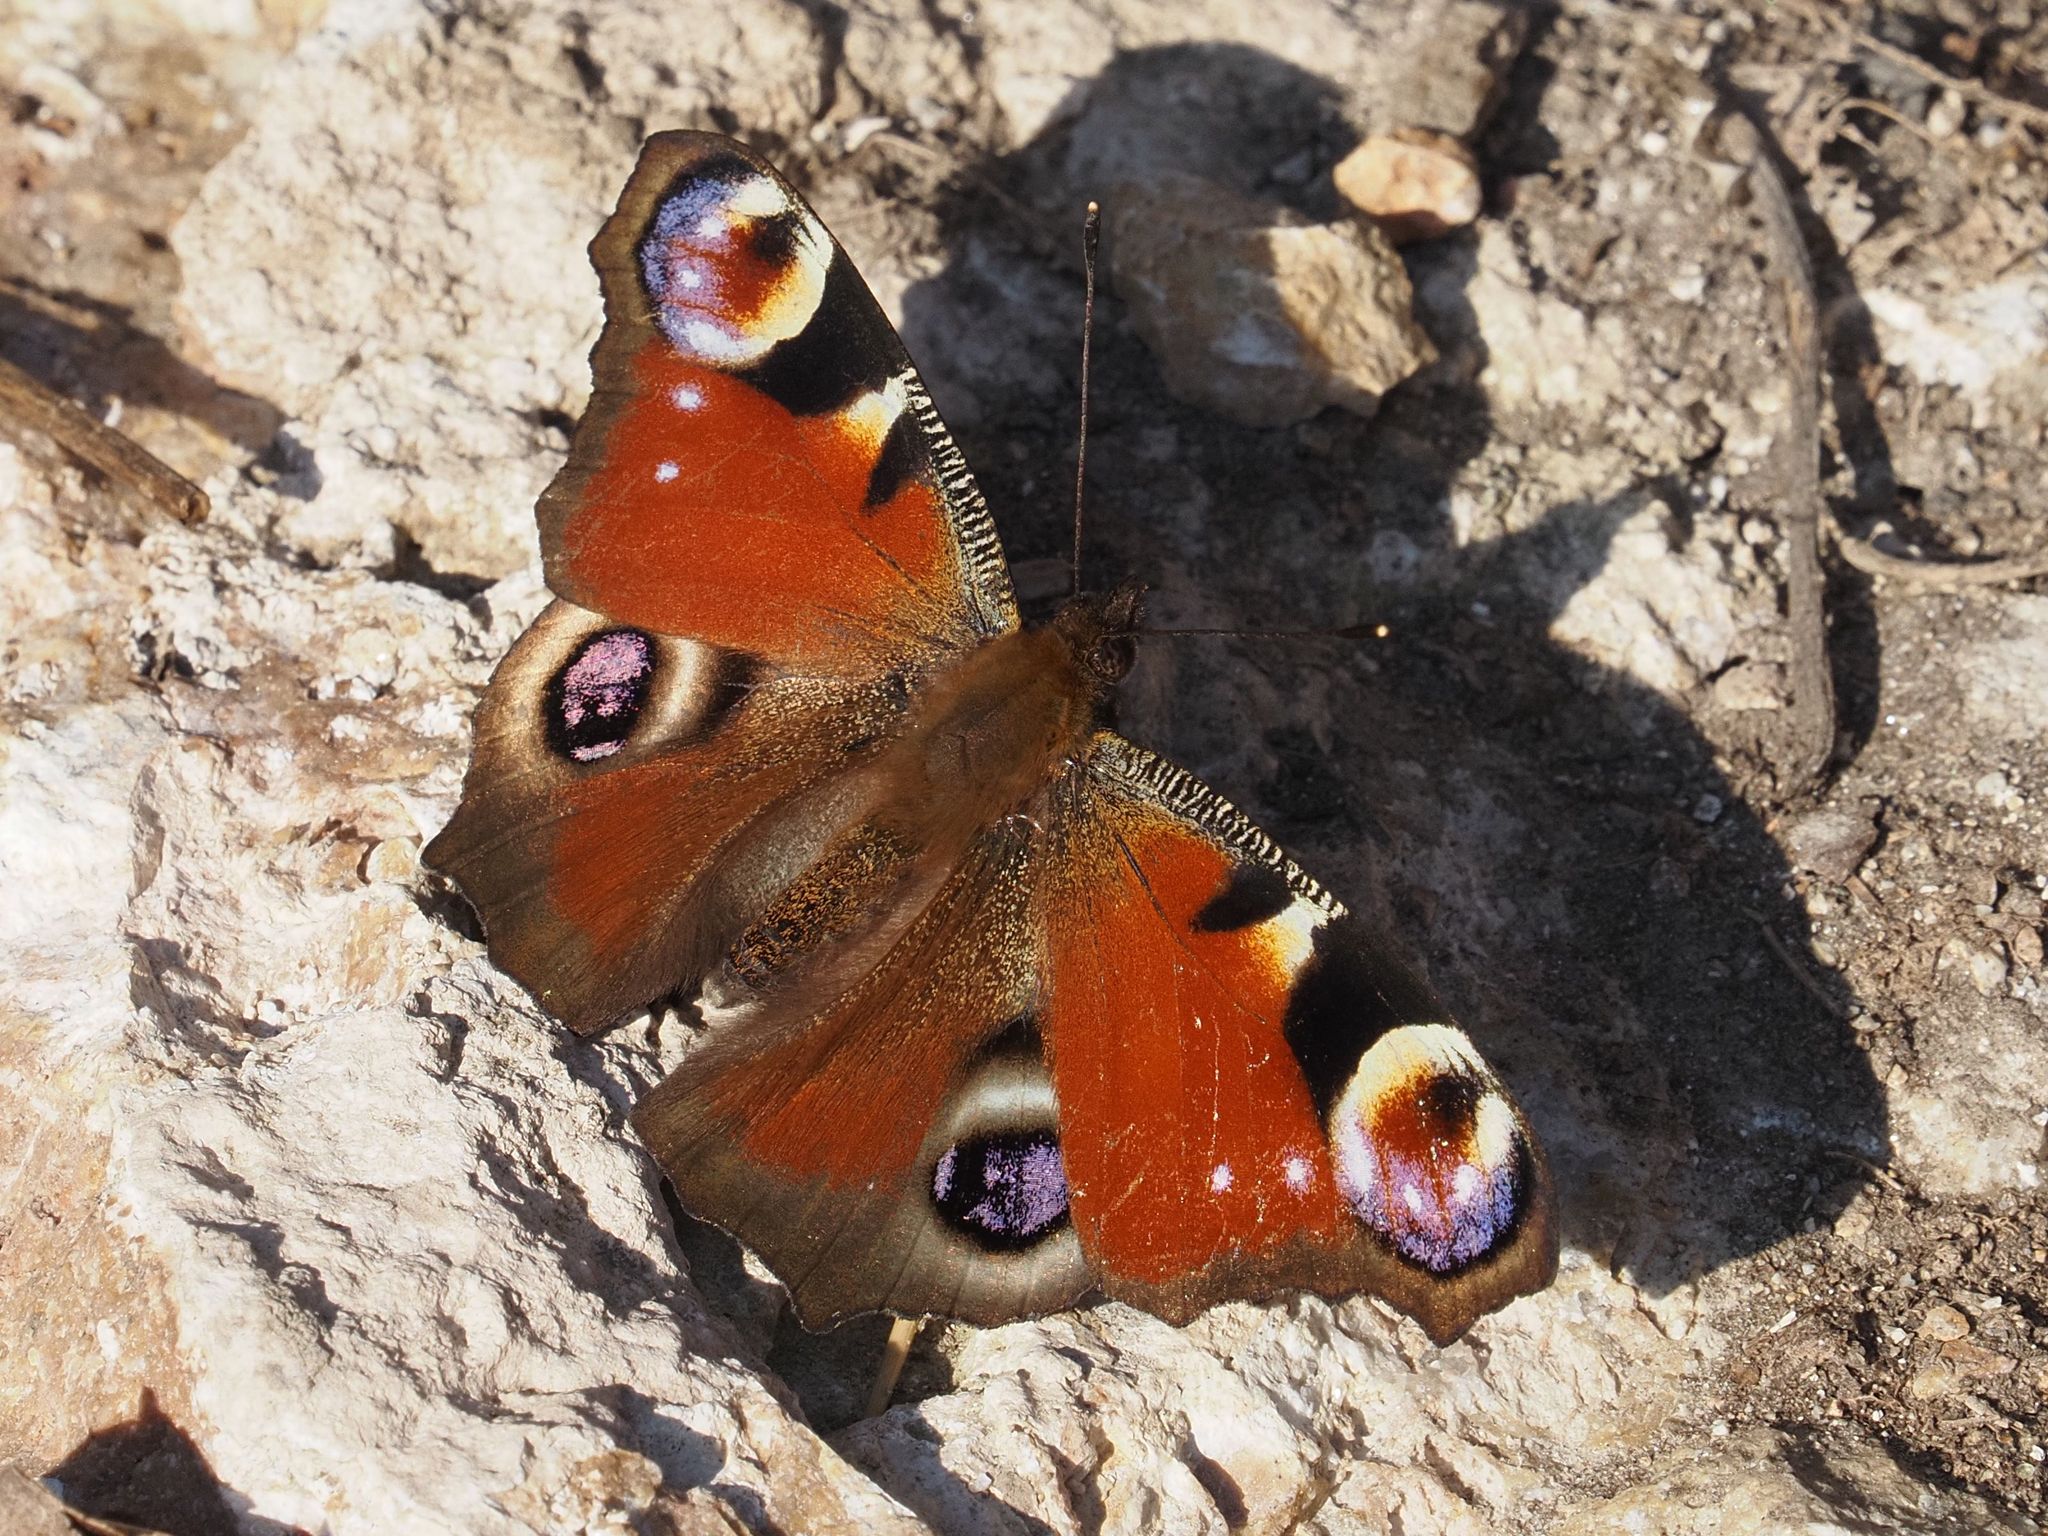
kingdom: Animalia
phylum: Arthropoda
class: Insecta
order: Lepidoptera
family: Nymphalidae
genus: Aglais
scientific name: Aglais io
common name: Peacock
